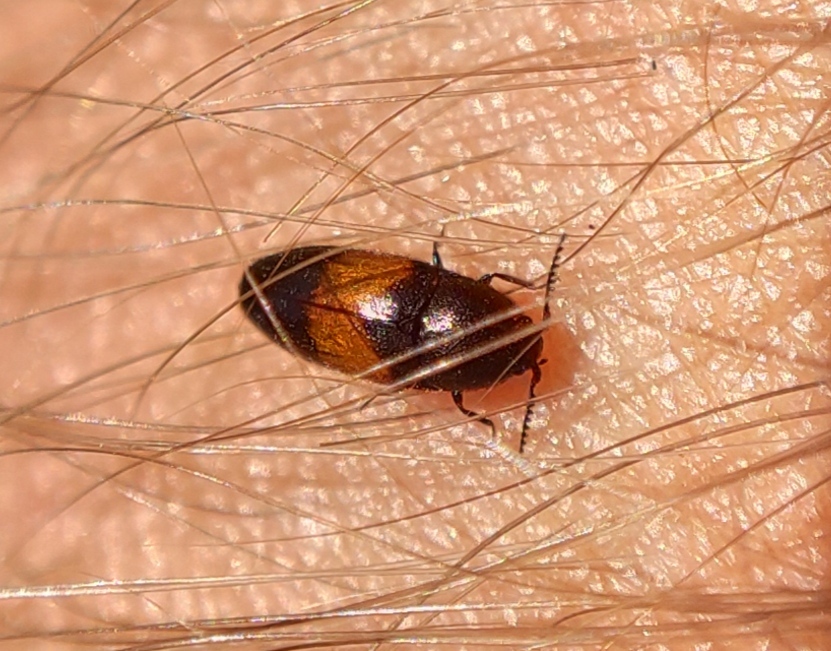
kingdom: Animalia
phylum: Arthropoda
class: Insecta
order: Coleoptera
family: Elateridae
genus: Drapetes
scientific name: Drapetes mordelloides
